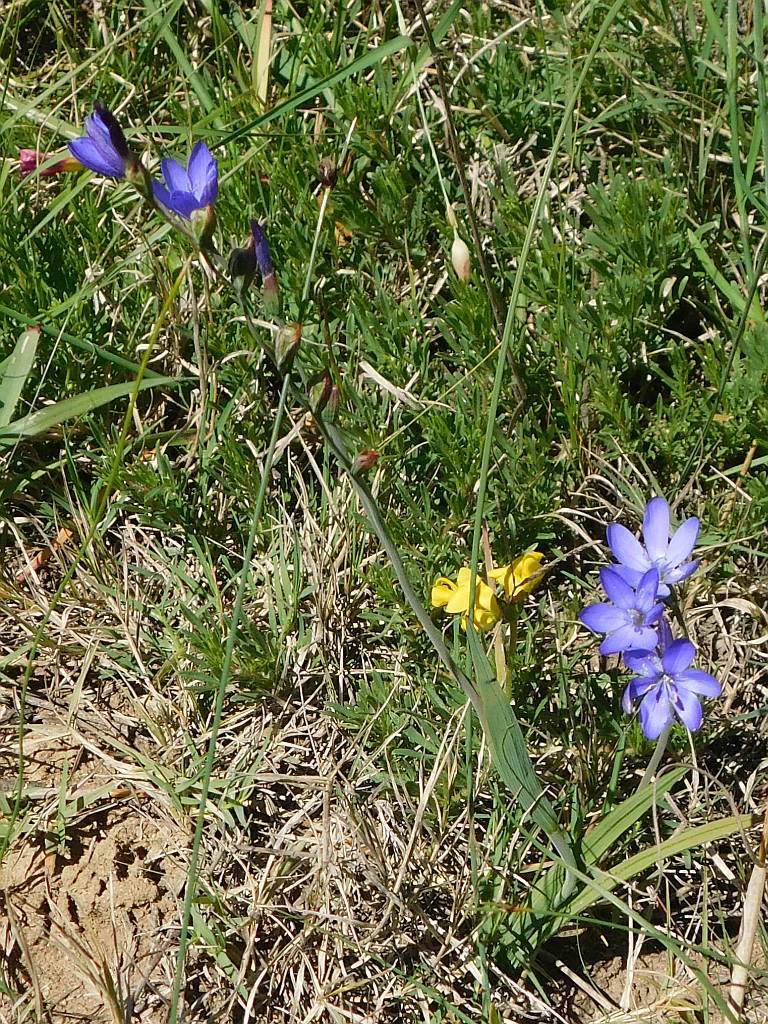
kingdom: Plantae
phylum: Tracheophyta
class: Liliopsida
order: Asparagales
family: Iridaceae
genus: Geissorhiza
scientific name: Geissorhiza aspera
